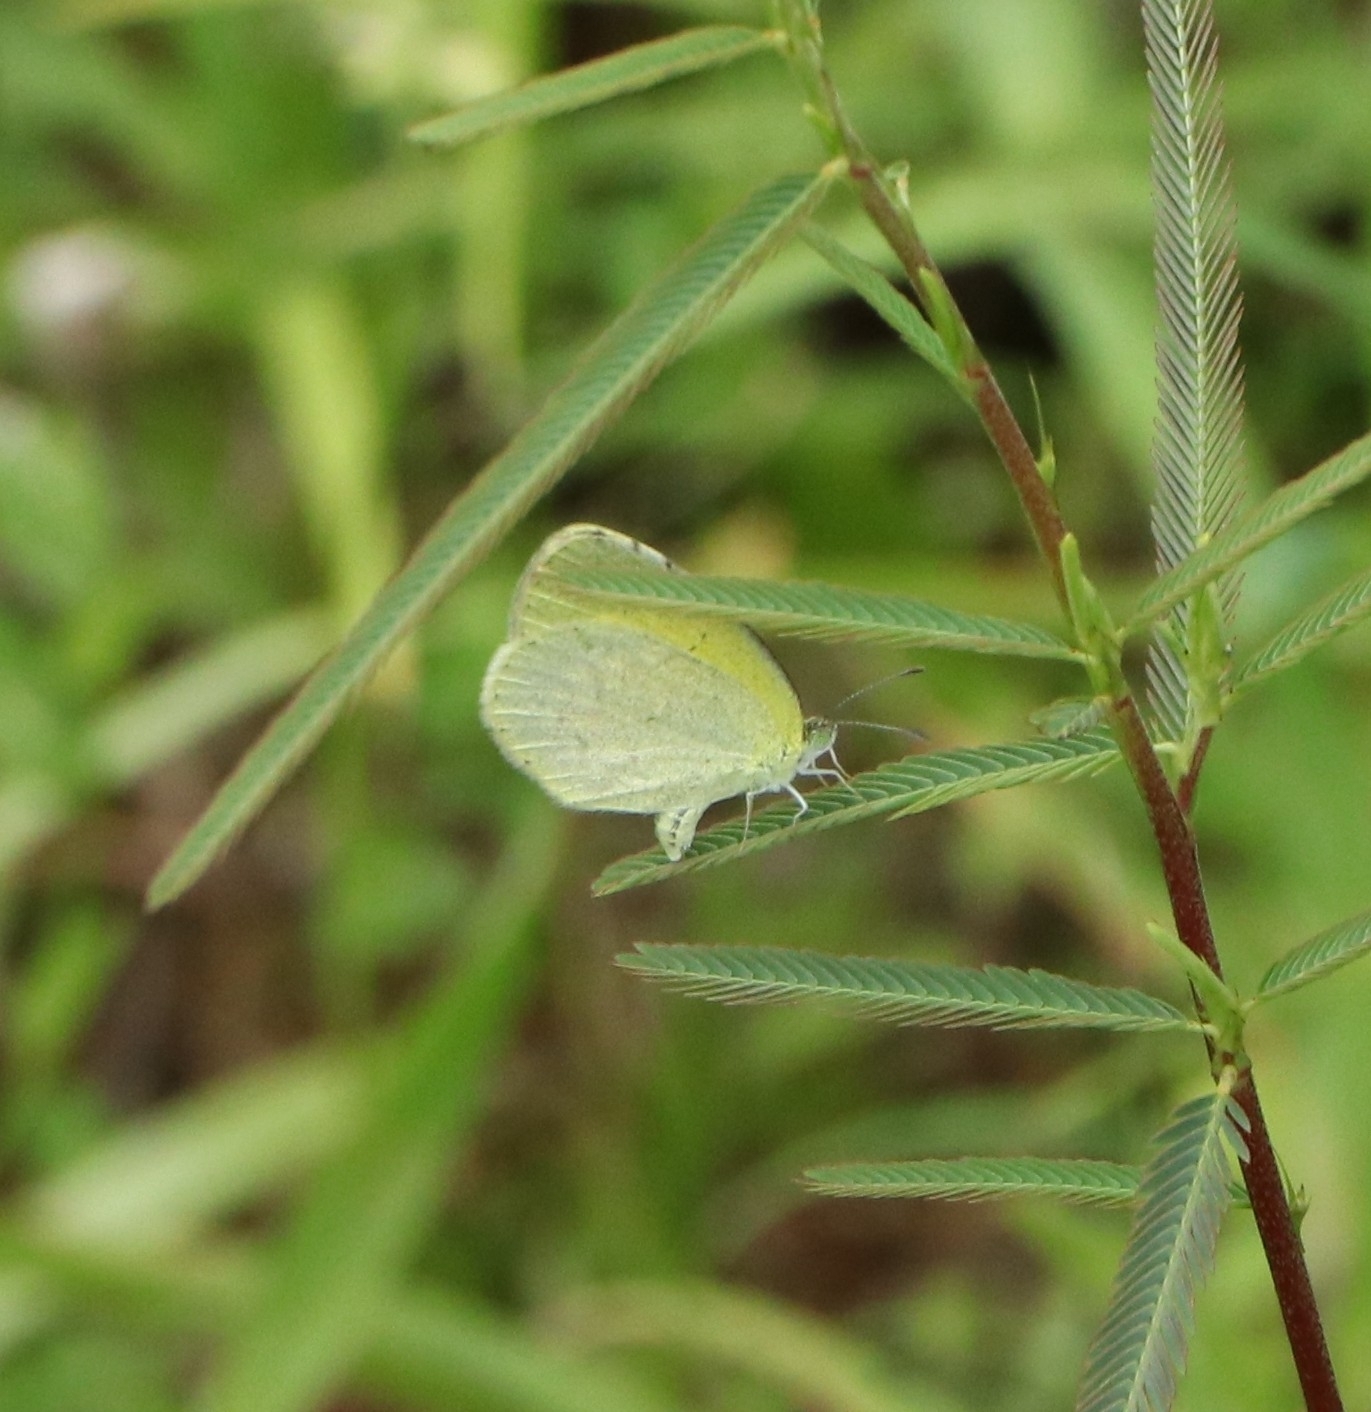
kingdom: Animalia
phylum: Arthropoda
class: Insecta
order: Lepidoptera
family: Pieridae
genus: Eurema
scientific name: Eurema brigitta
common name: Small grass yellow
